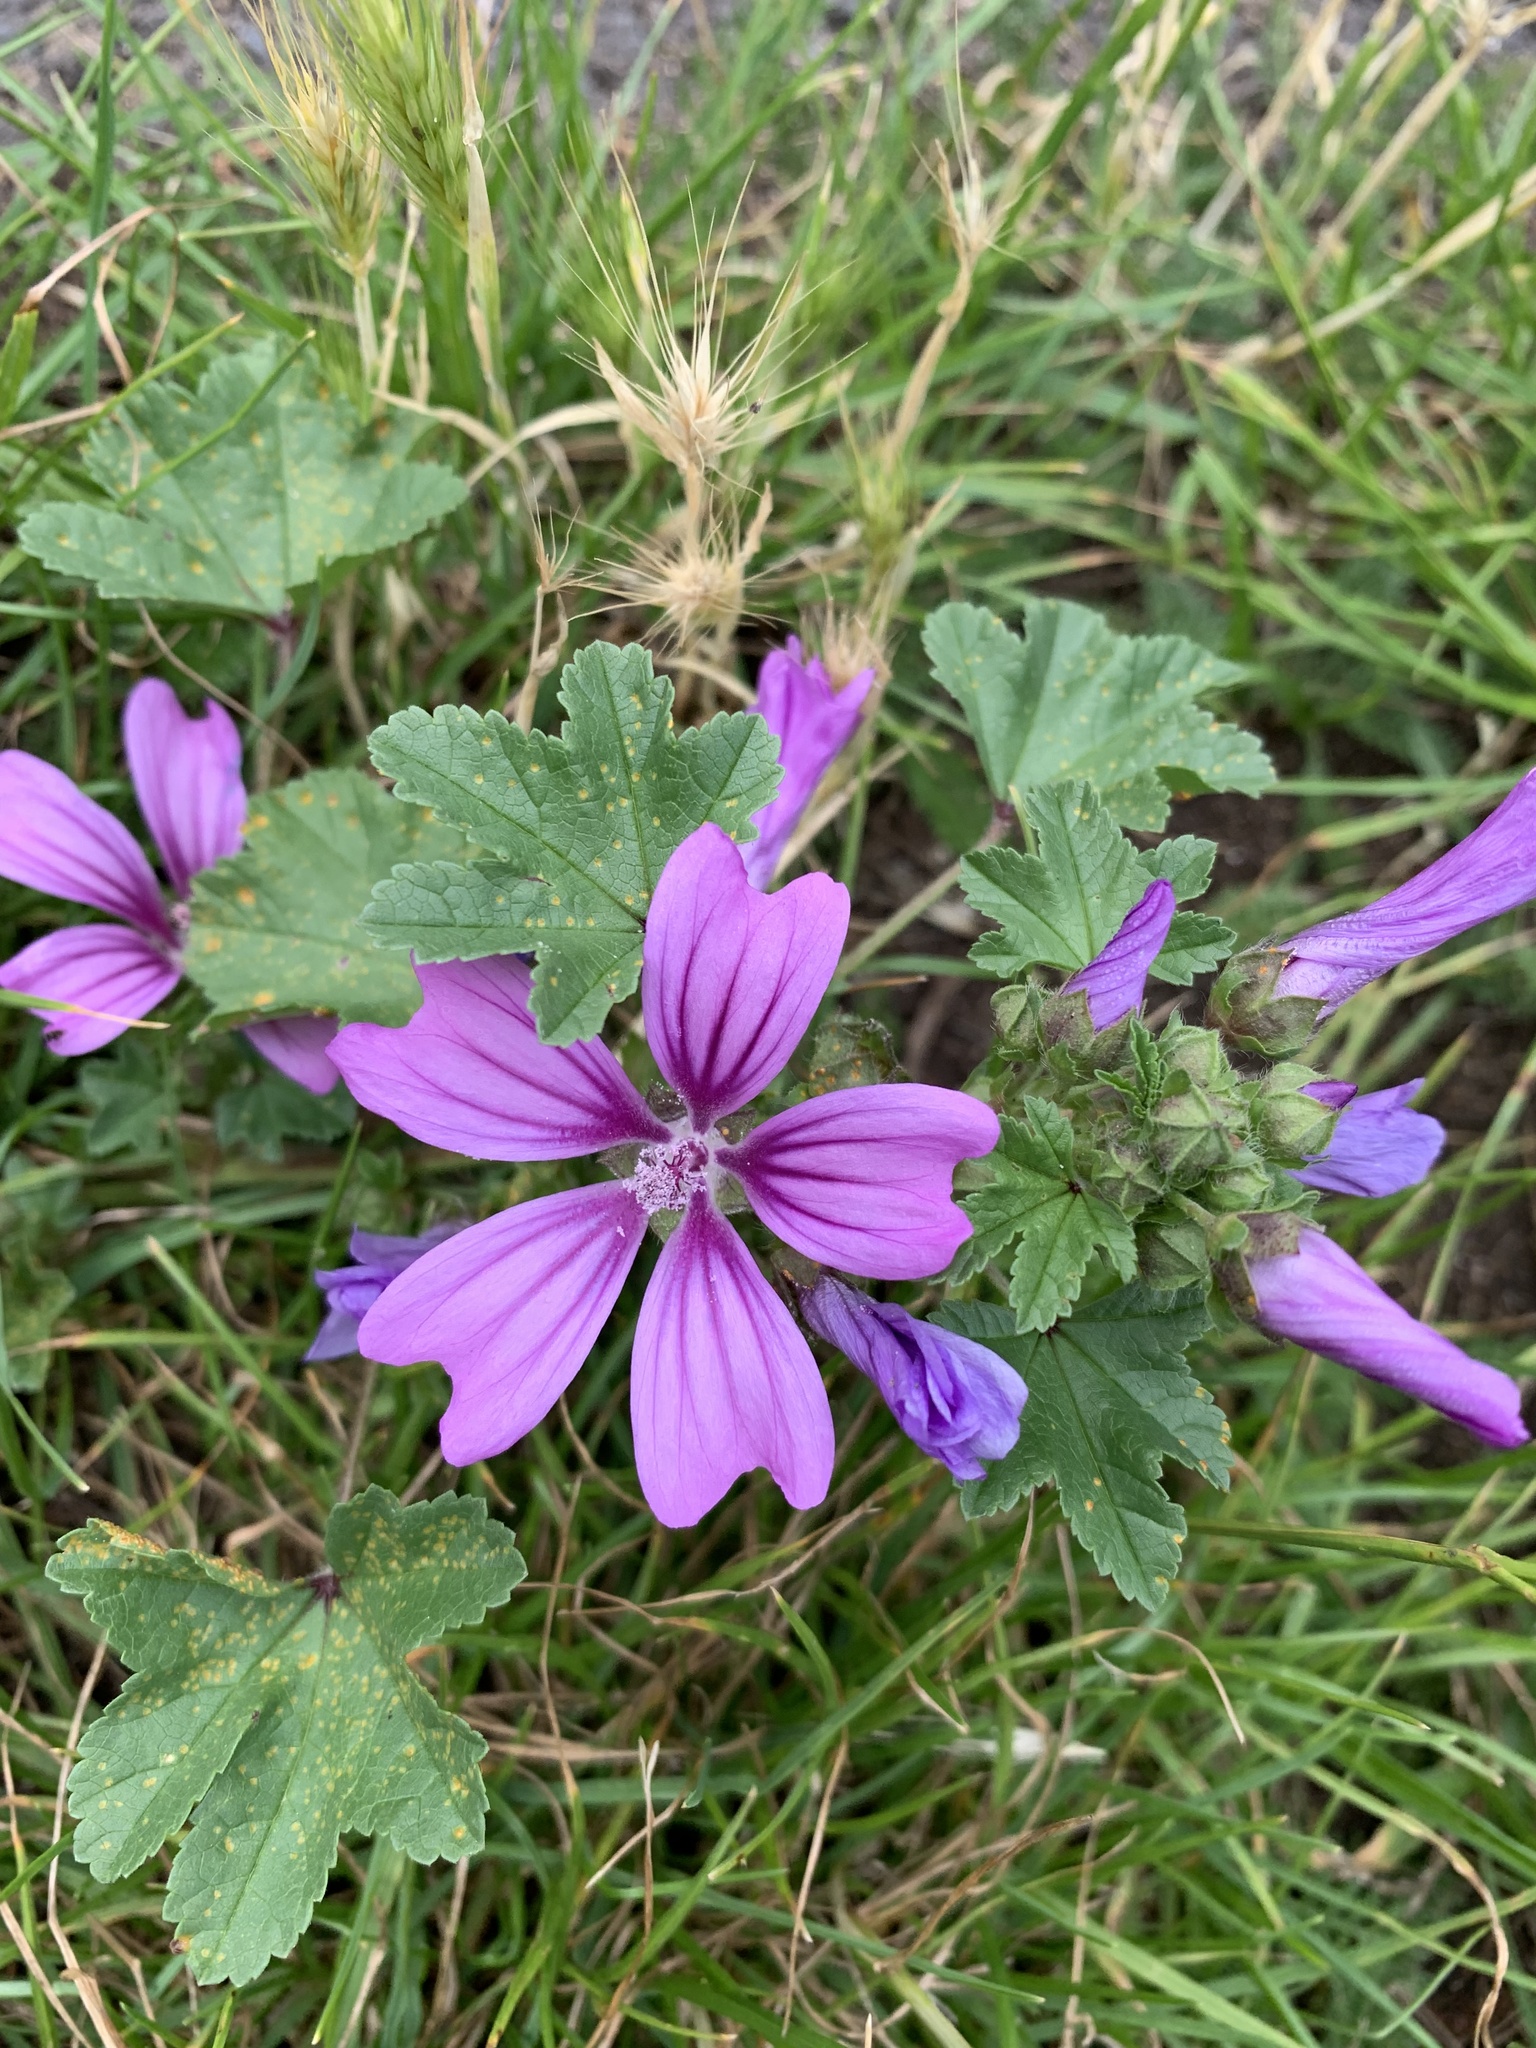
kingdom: Plantae
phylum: Tracheophyta
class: Magnoliopsida
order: Malvales
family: Malvaceae
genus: Malva
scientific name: Malva sylvestris
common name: Common mallow
